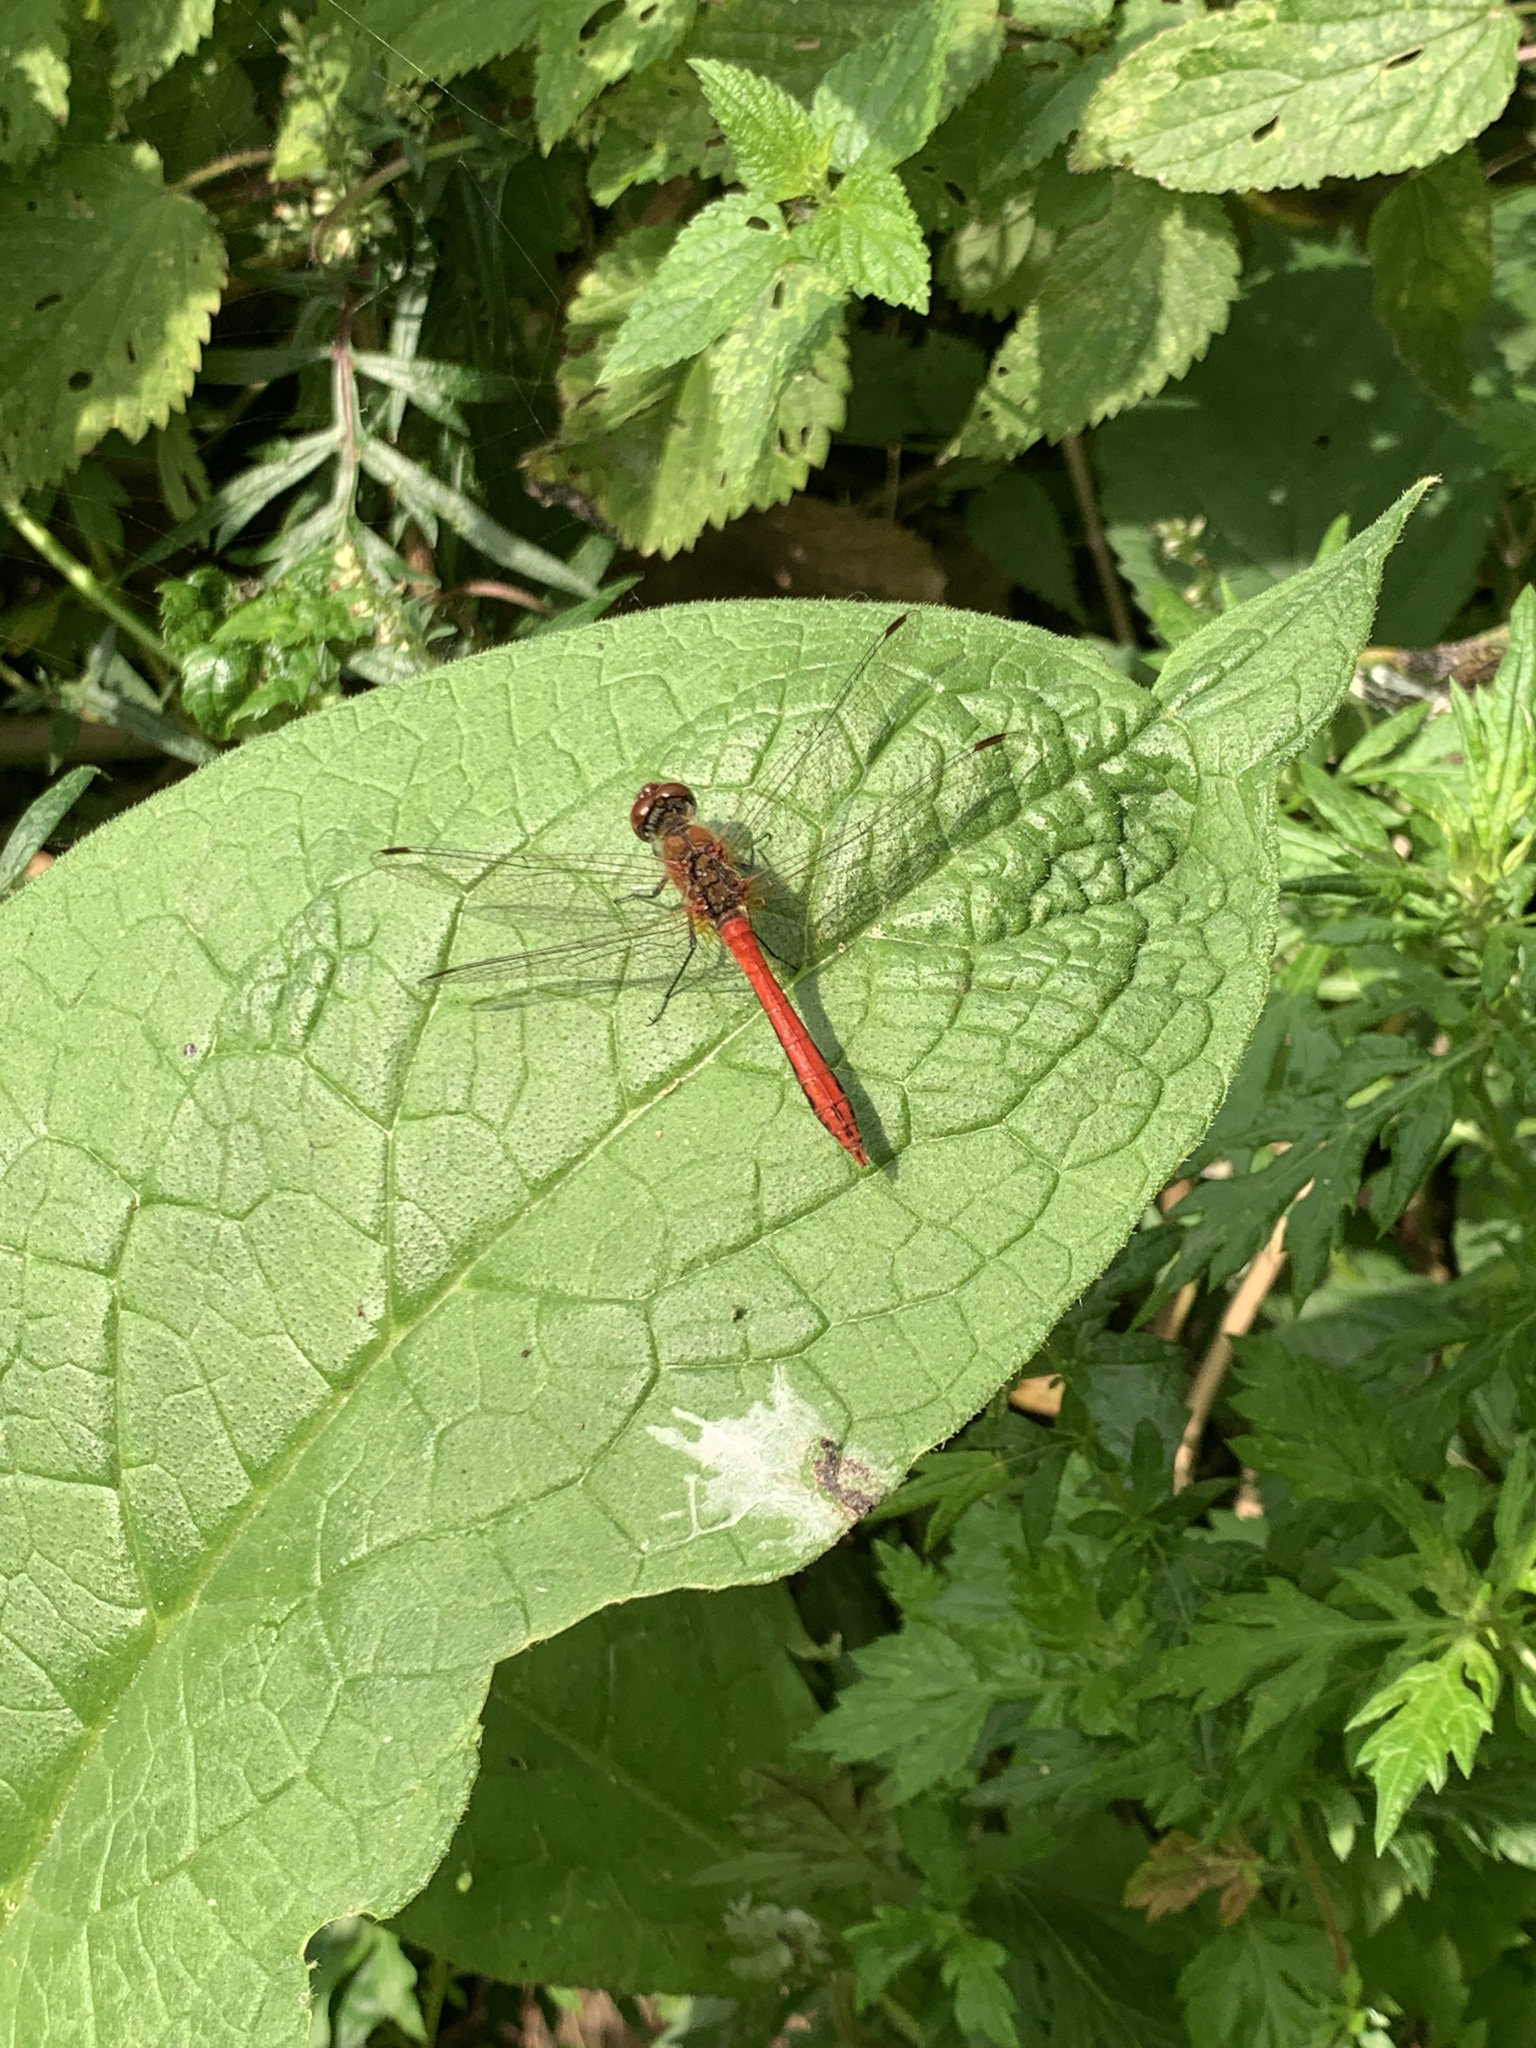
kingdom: Animalia
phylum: Arthropoda
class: Insecta
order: Odonata
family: Libellulidae
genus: Sympetrum
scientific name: Sympetrum sanguineum
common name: Ruddy darter
